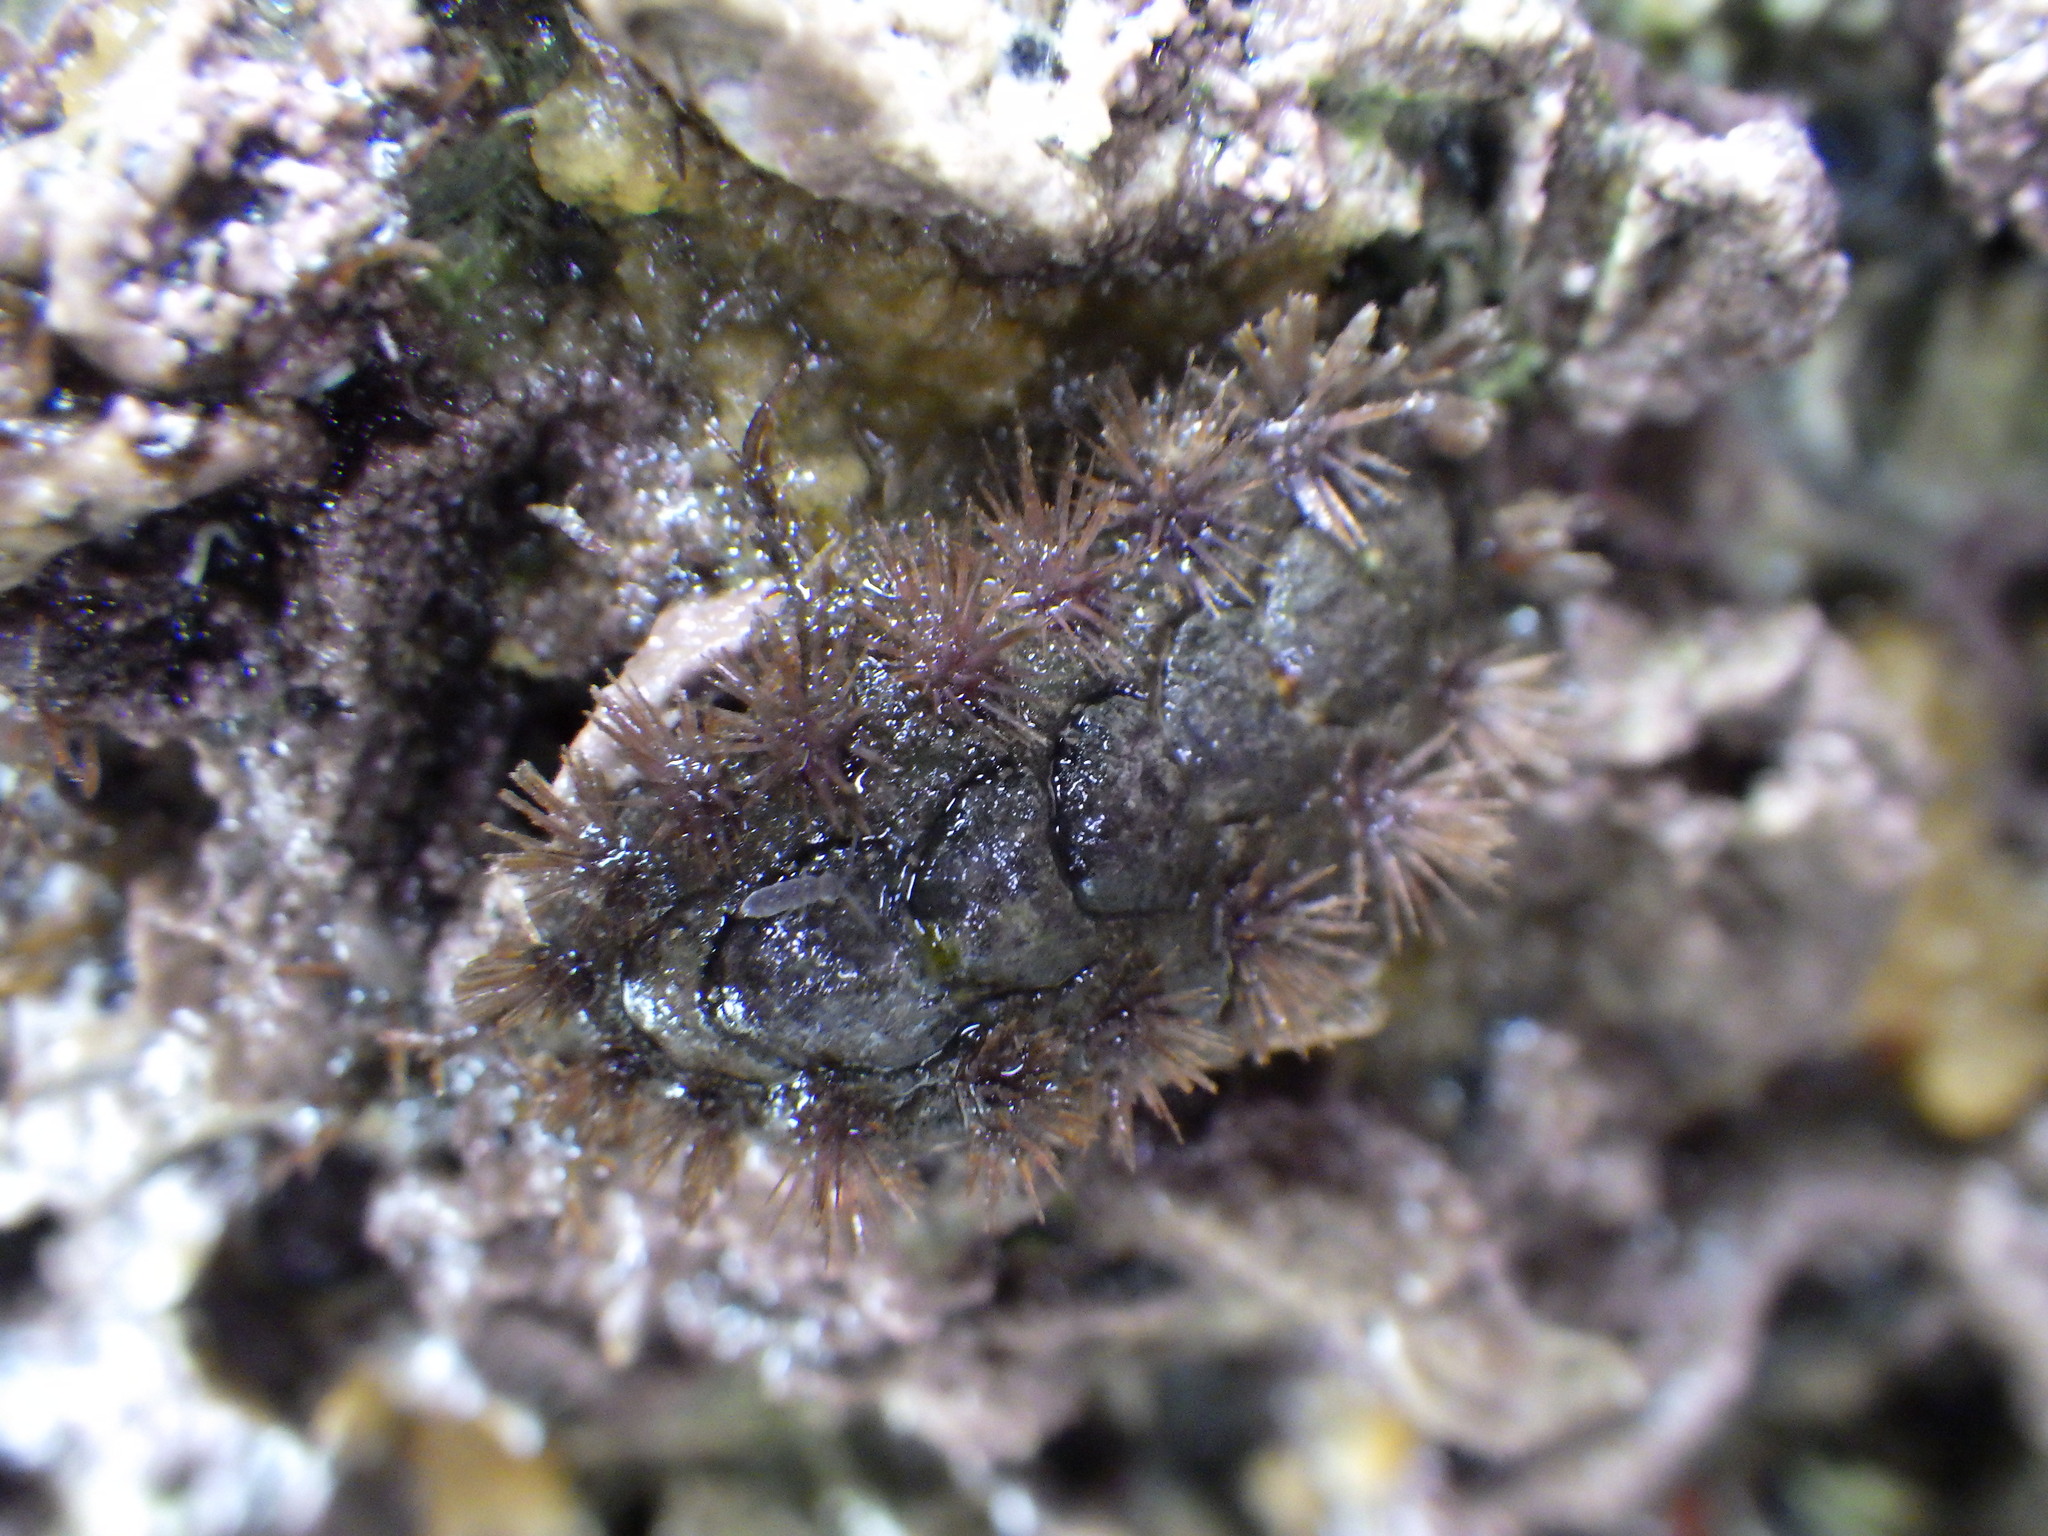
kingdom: Animalia
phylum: Mollusca
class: Polyplacophora
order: Chitonida
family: Acanthochitonidae
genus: Acanthochitona
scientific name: Acanthochitona zelandica
